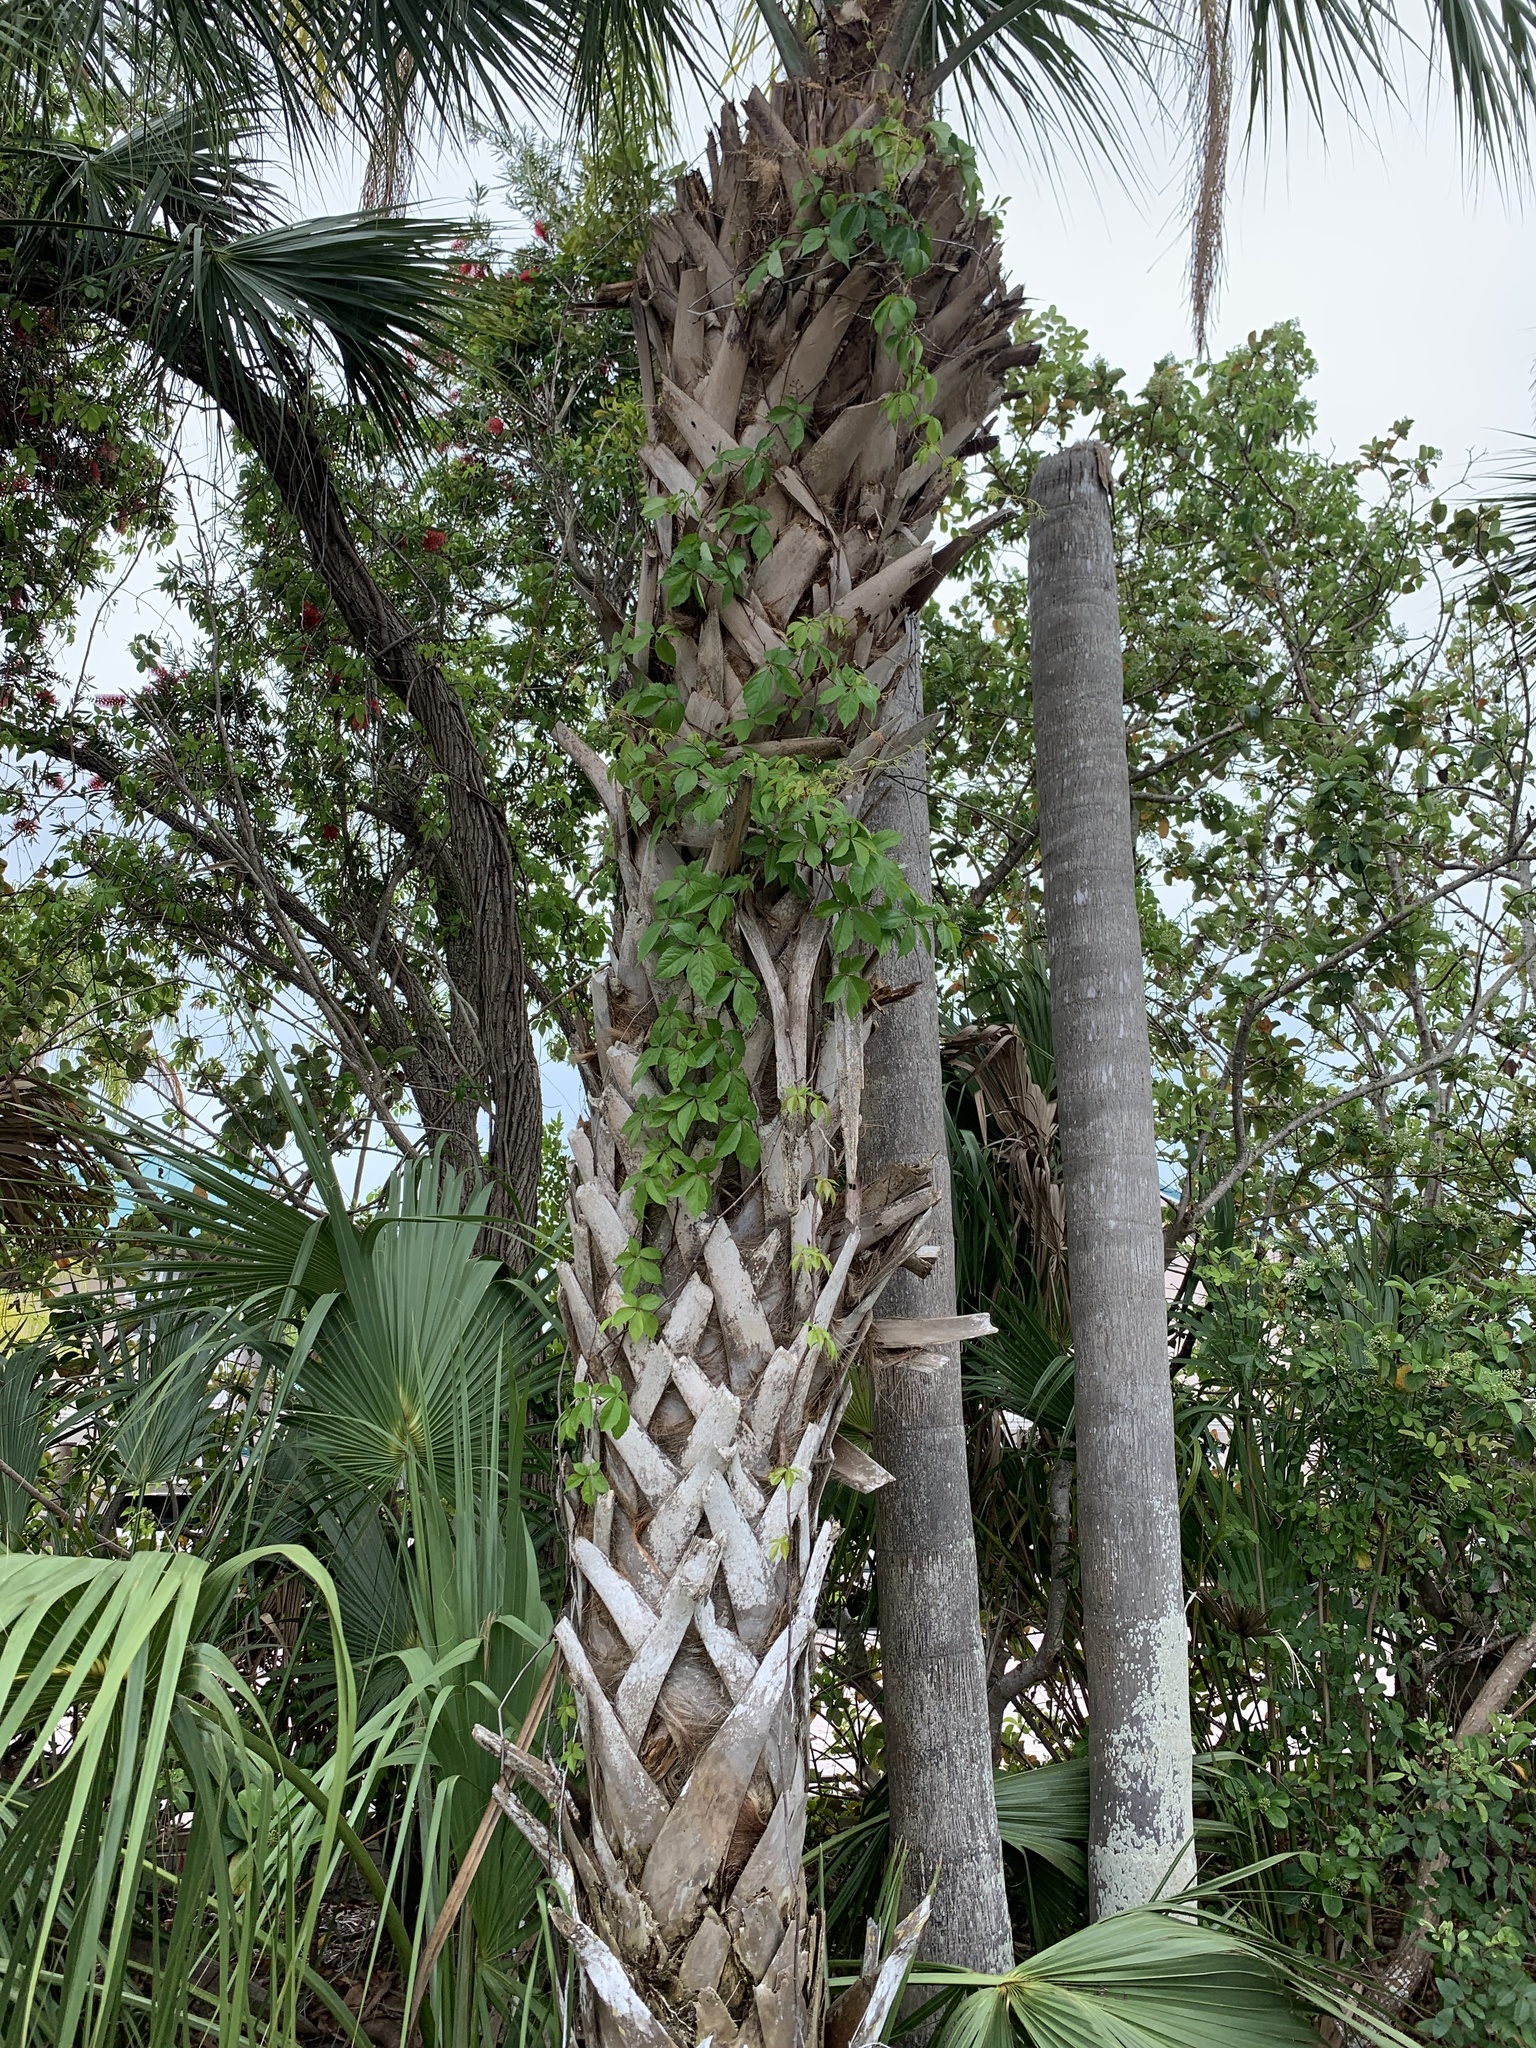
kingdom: Plantae
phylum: Tracheophyta
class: Magnoliopsida
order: Vitales
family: Vitaceae
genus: Parthenocissus
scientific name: Parthenocissus quinquefolia
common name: Virginia-creeper
